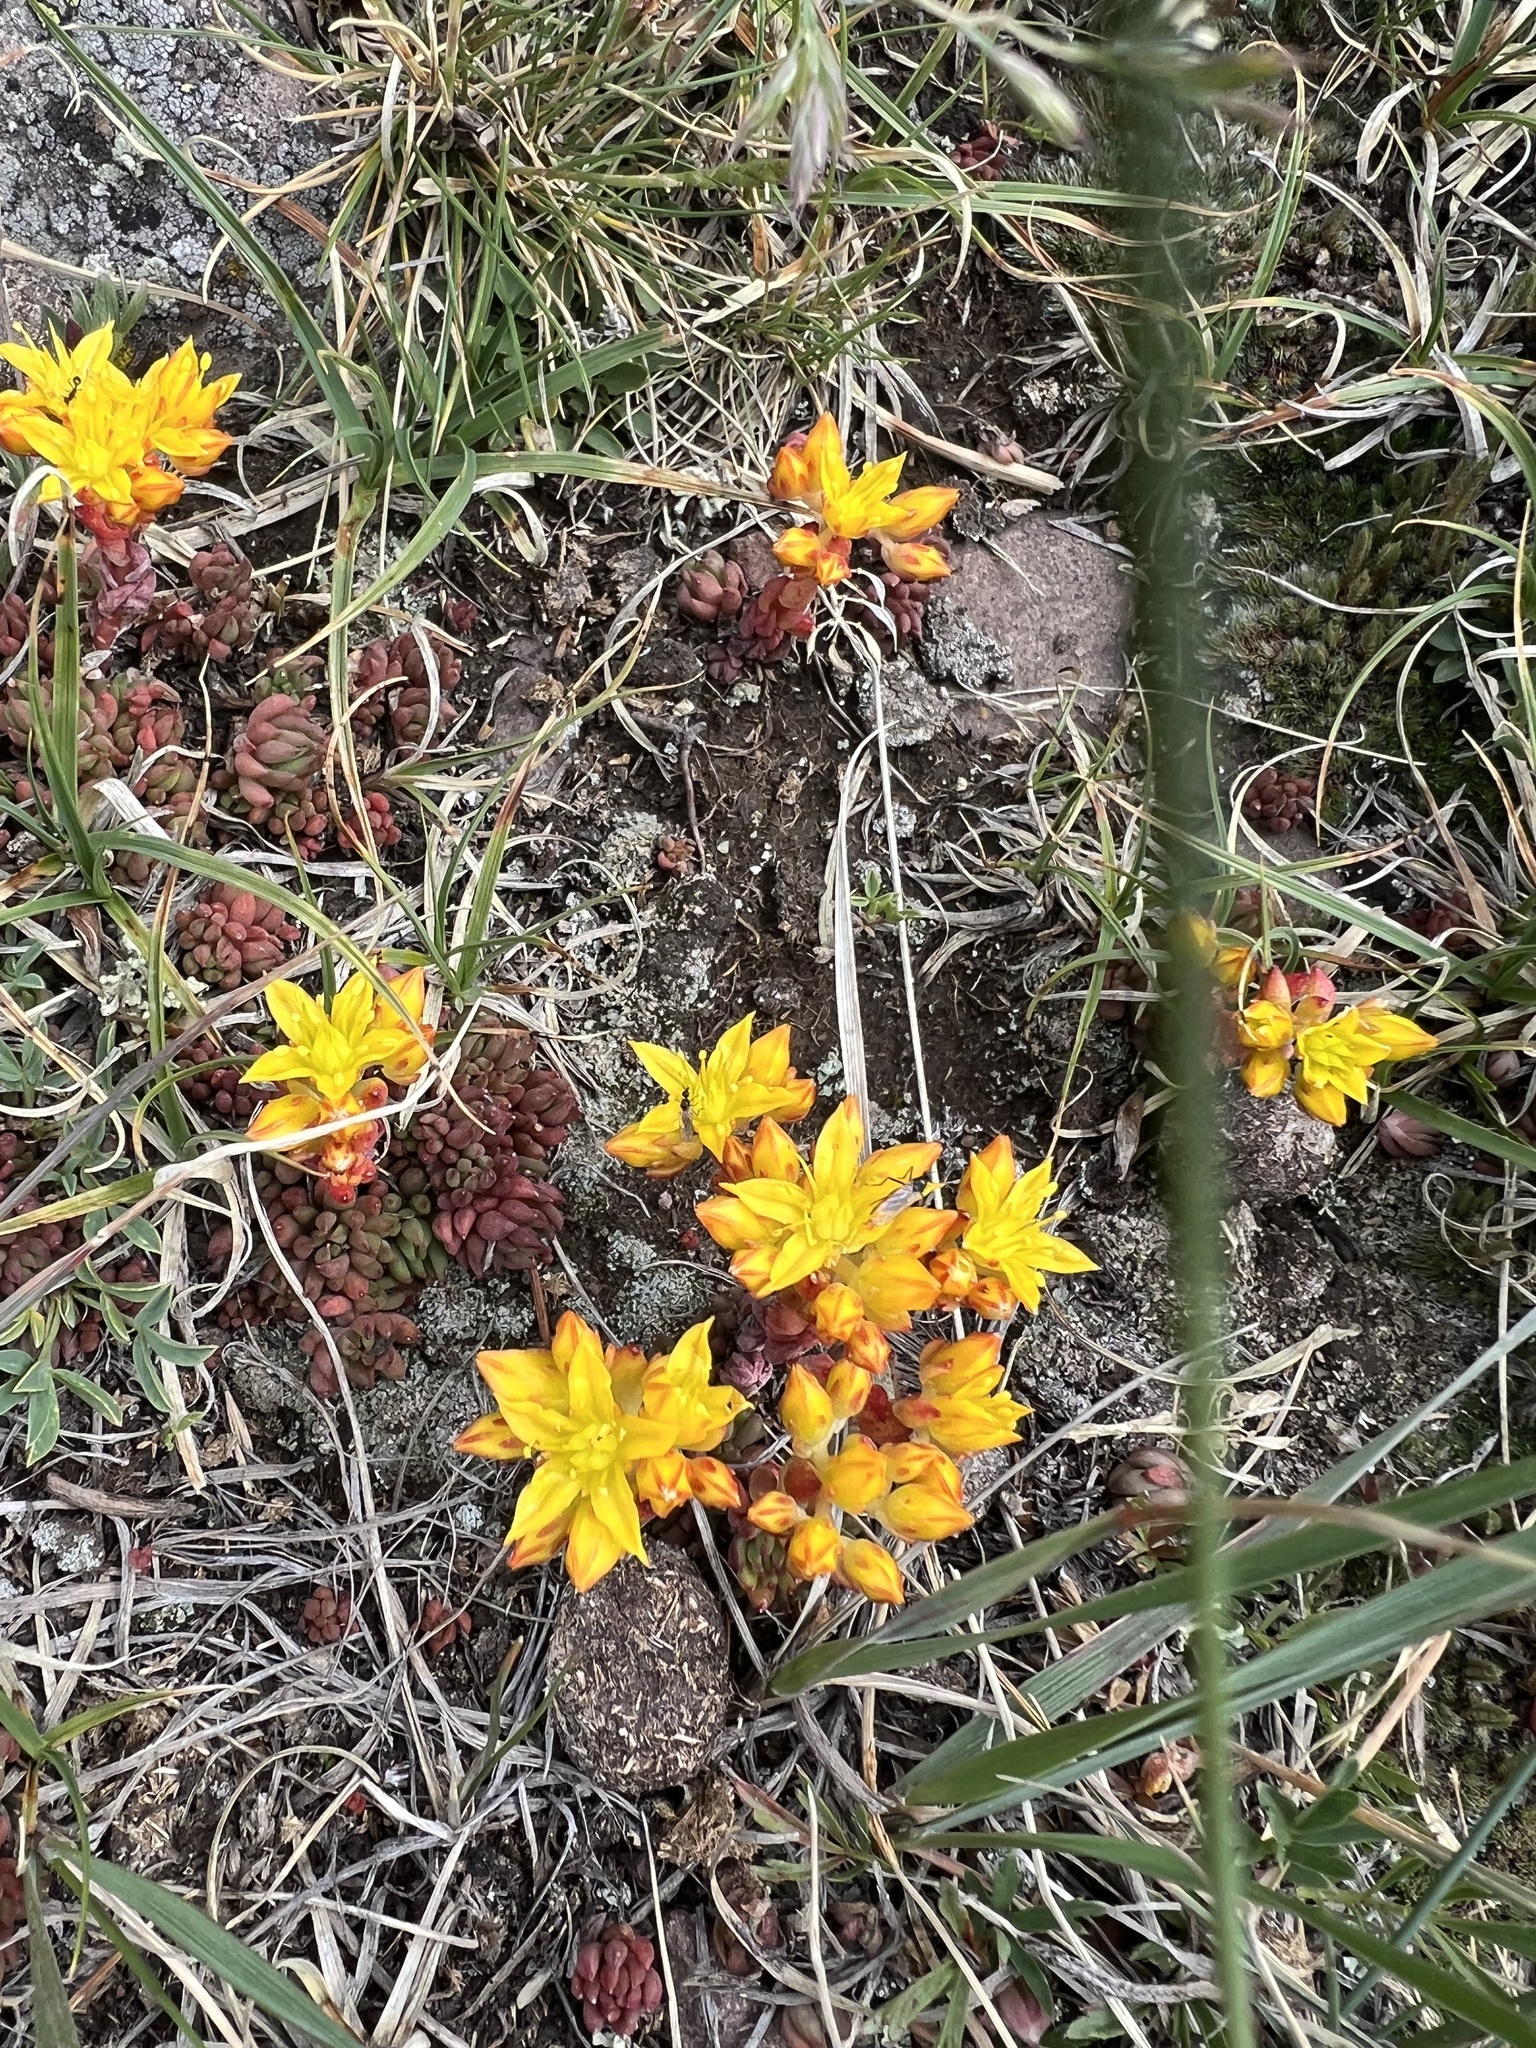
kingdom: Plantae
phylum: Tracheophyta
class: Magnoliopsida
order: Saxifragales
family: Crassulaceae
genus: Sedum
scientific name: Sedum lanceolatum
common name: Common stonecrop
